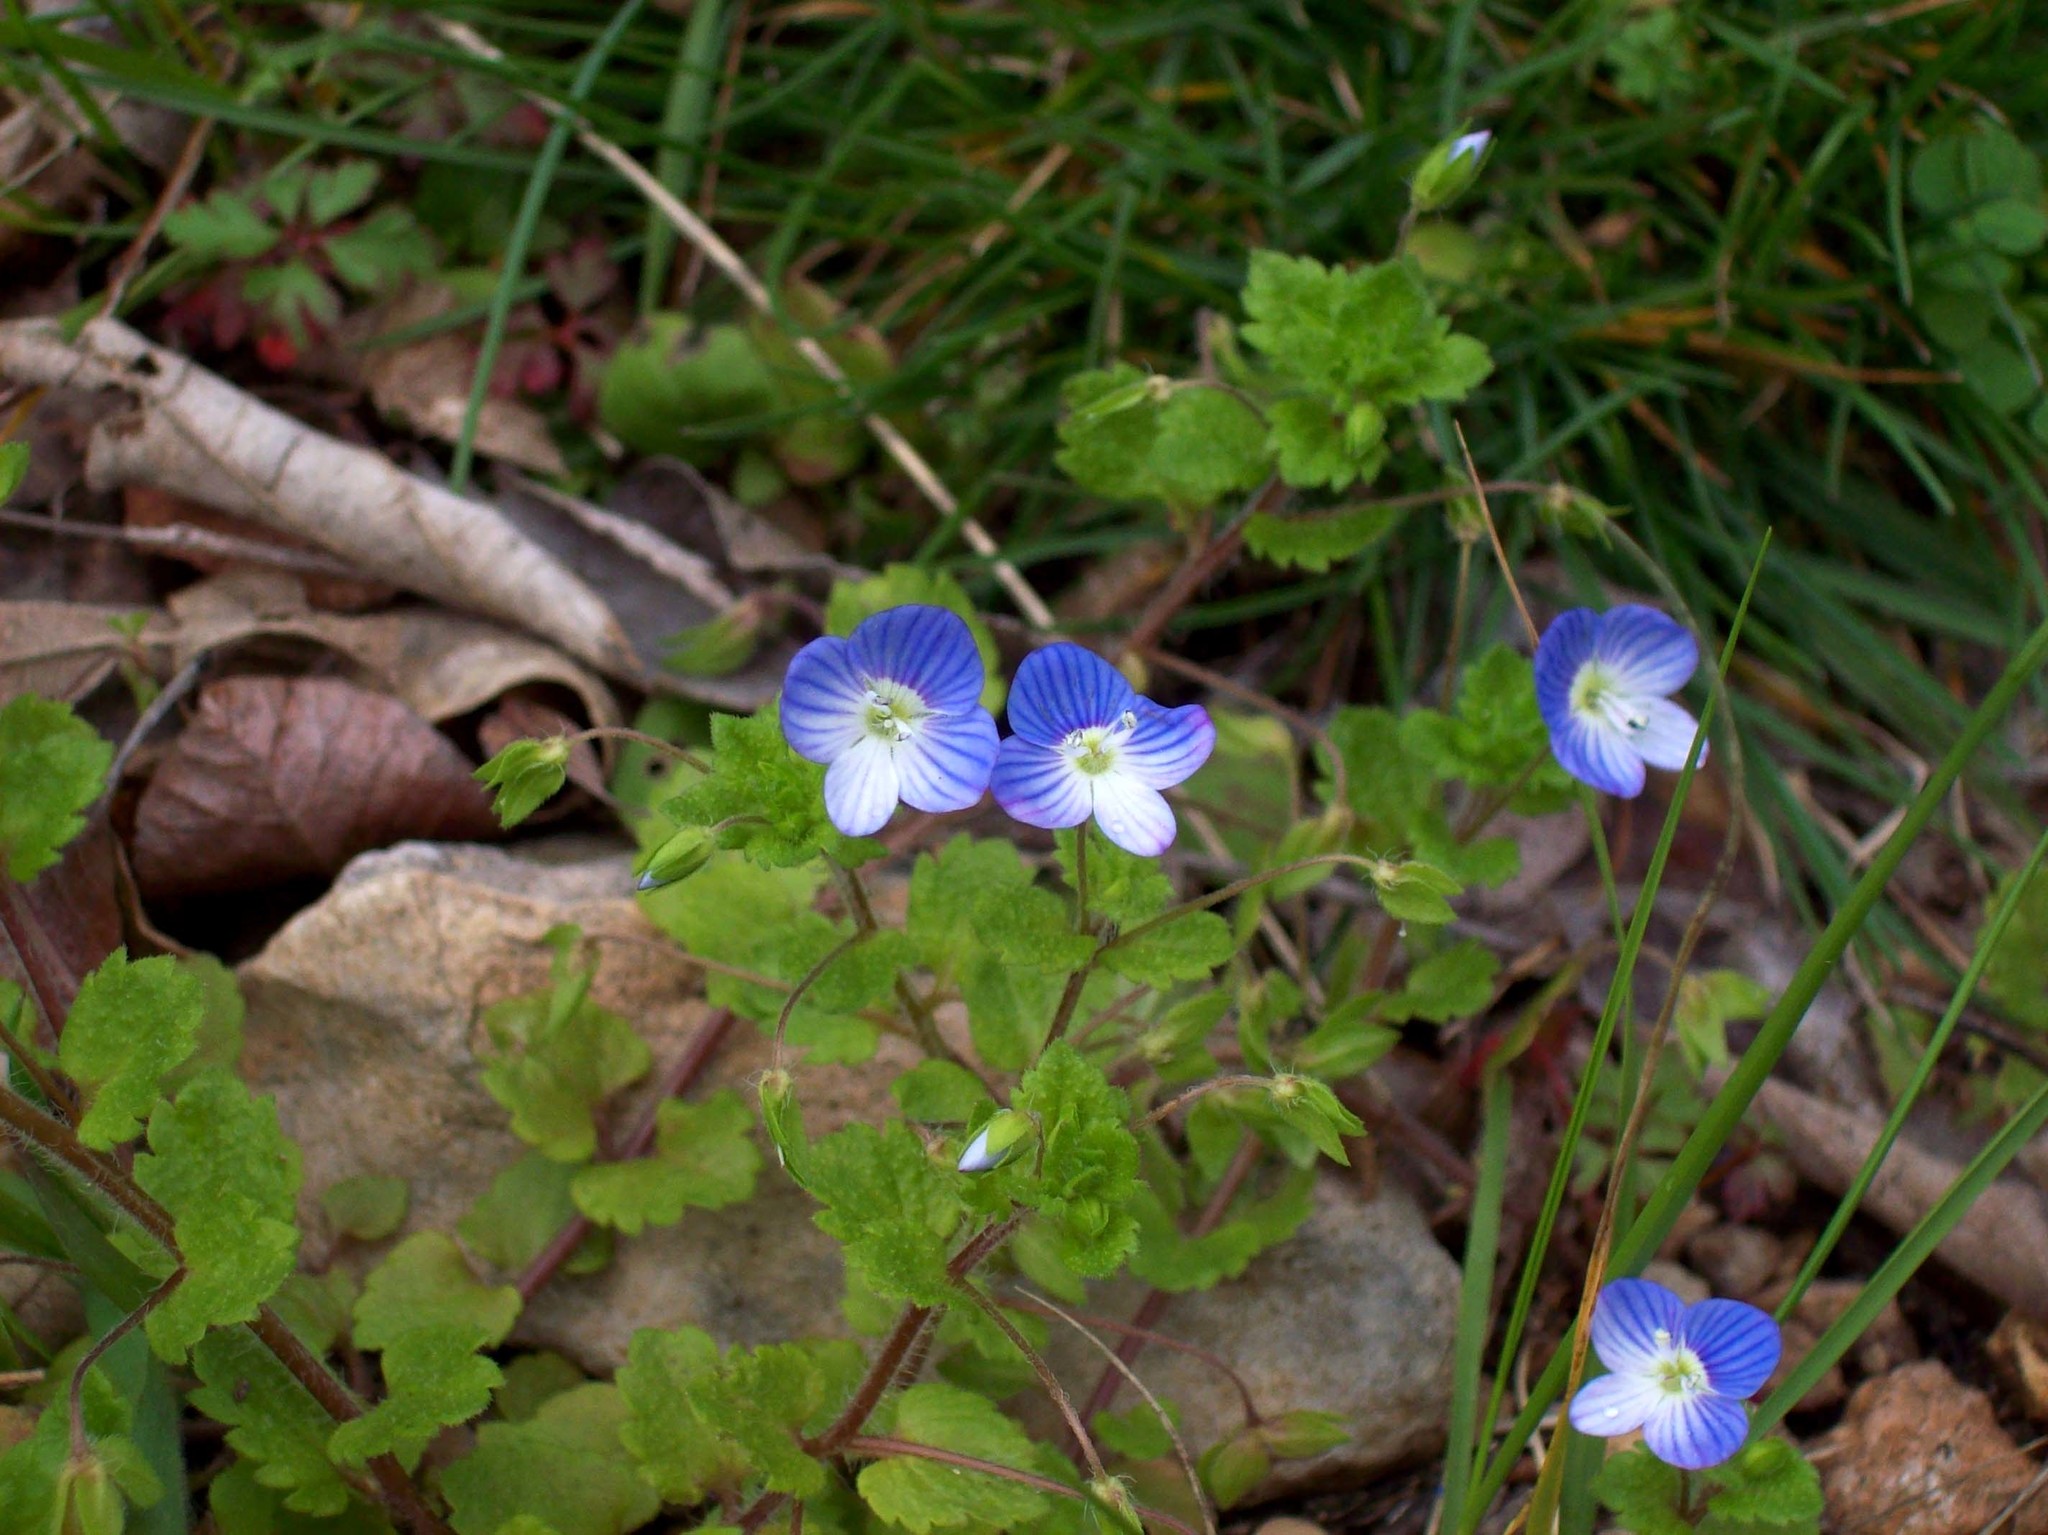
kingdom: Plantae
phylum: Tracheophyta
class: Magnoliopsida
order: Lamiales
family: Plantaginaceae
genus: Veronica
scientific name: Veronica persica
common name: Common field-speedwell
